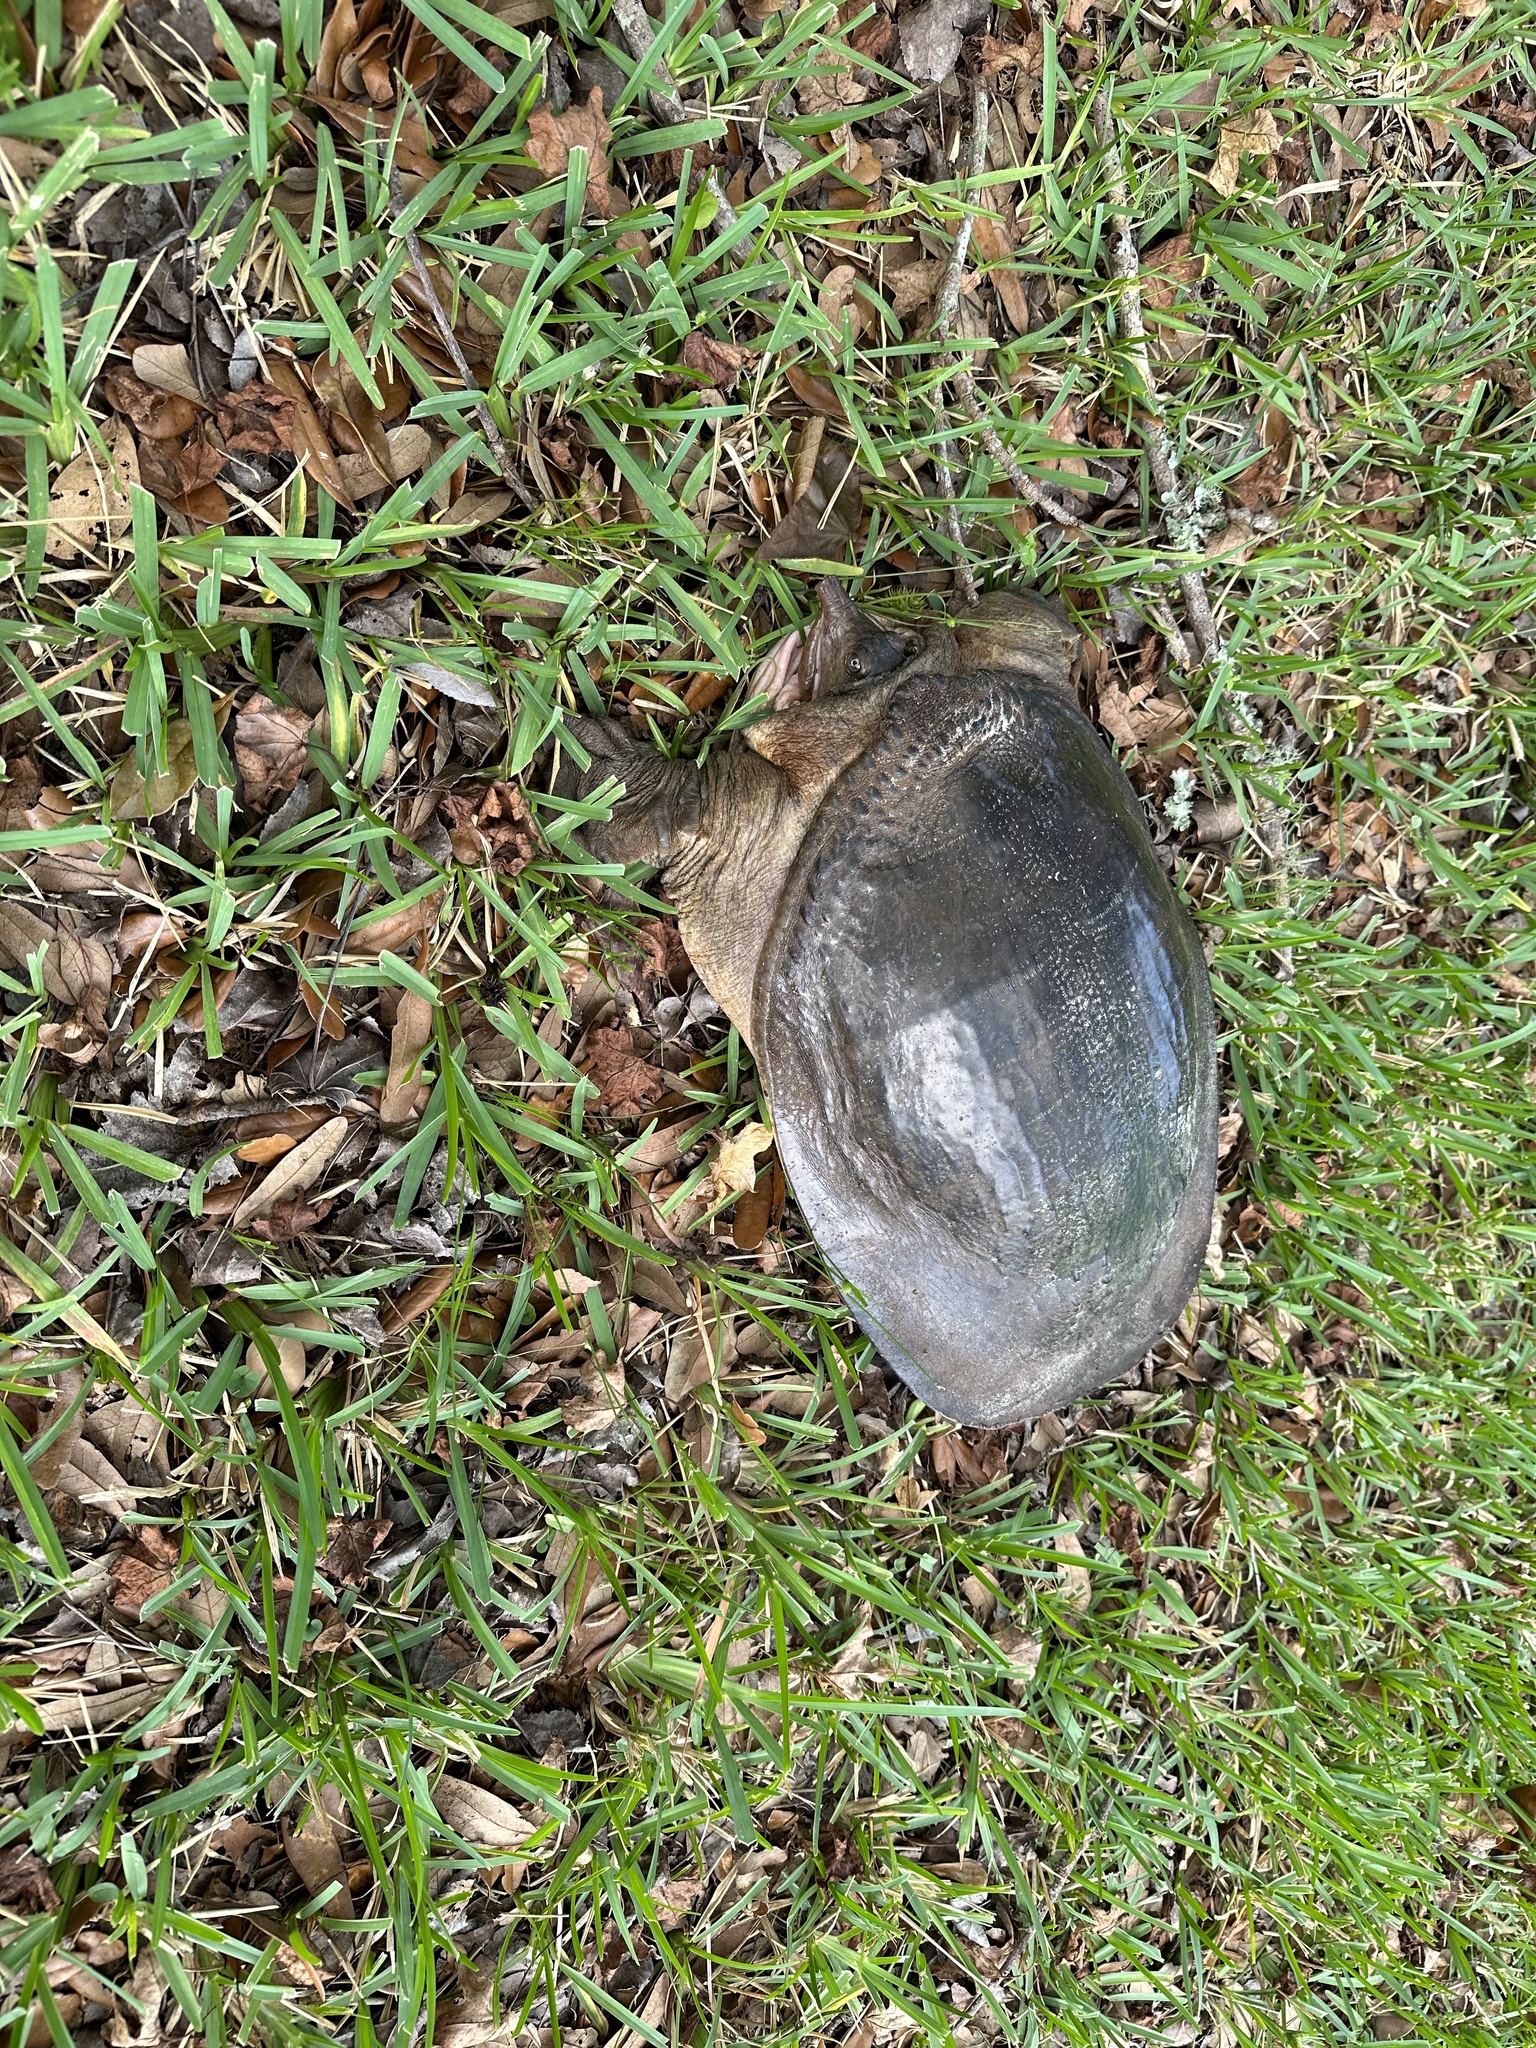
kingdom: Animalia
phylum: Chordata
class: Testudines
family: Trionychidae
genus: Apalone
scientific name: Apalone ferox
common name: Florida softshell turtle
